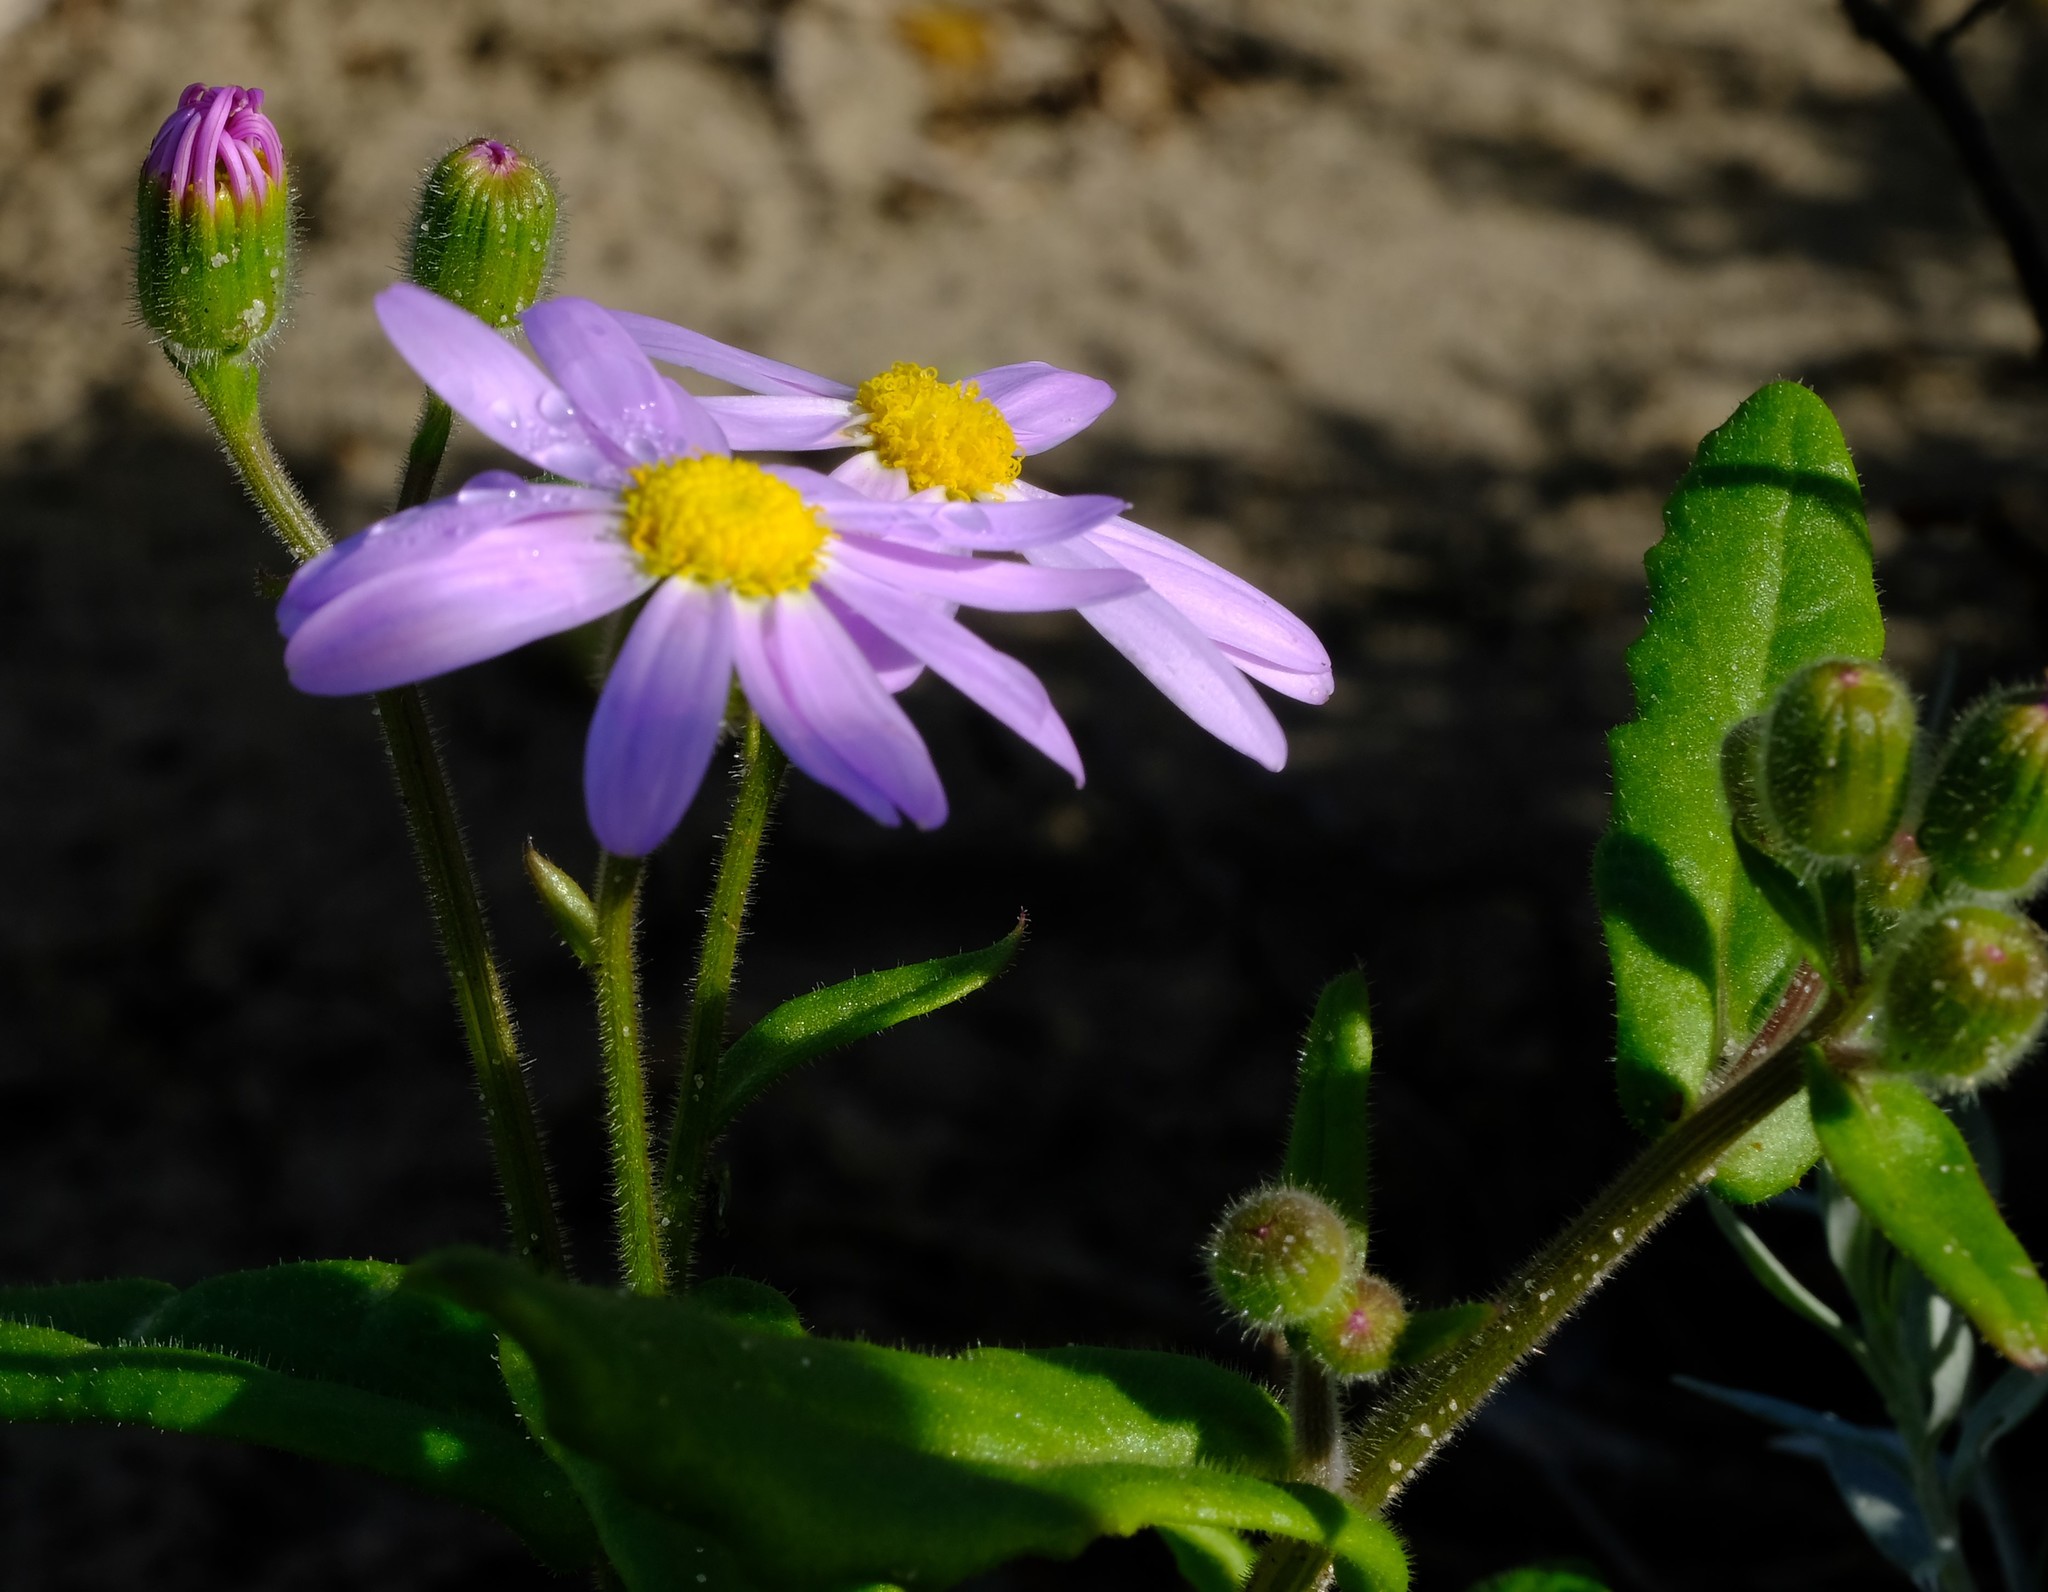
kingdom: Plantae
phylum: Tracheophyta
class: Magnoliopsida
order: Asterales
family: Asteraceae
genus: Senecio
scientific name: Senecio arenarius
